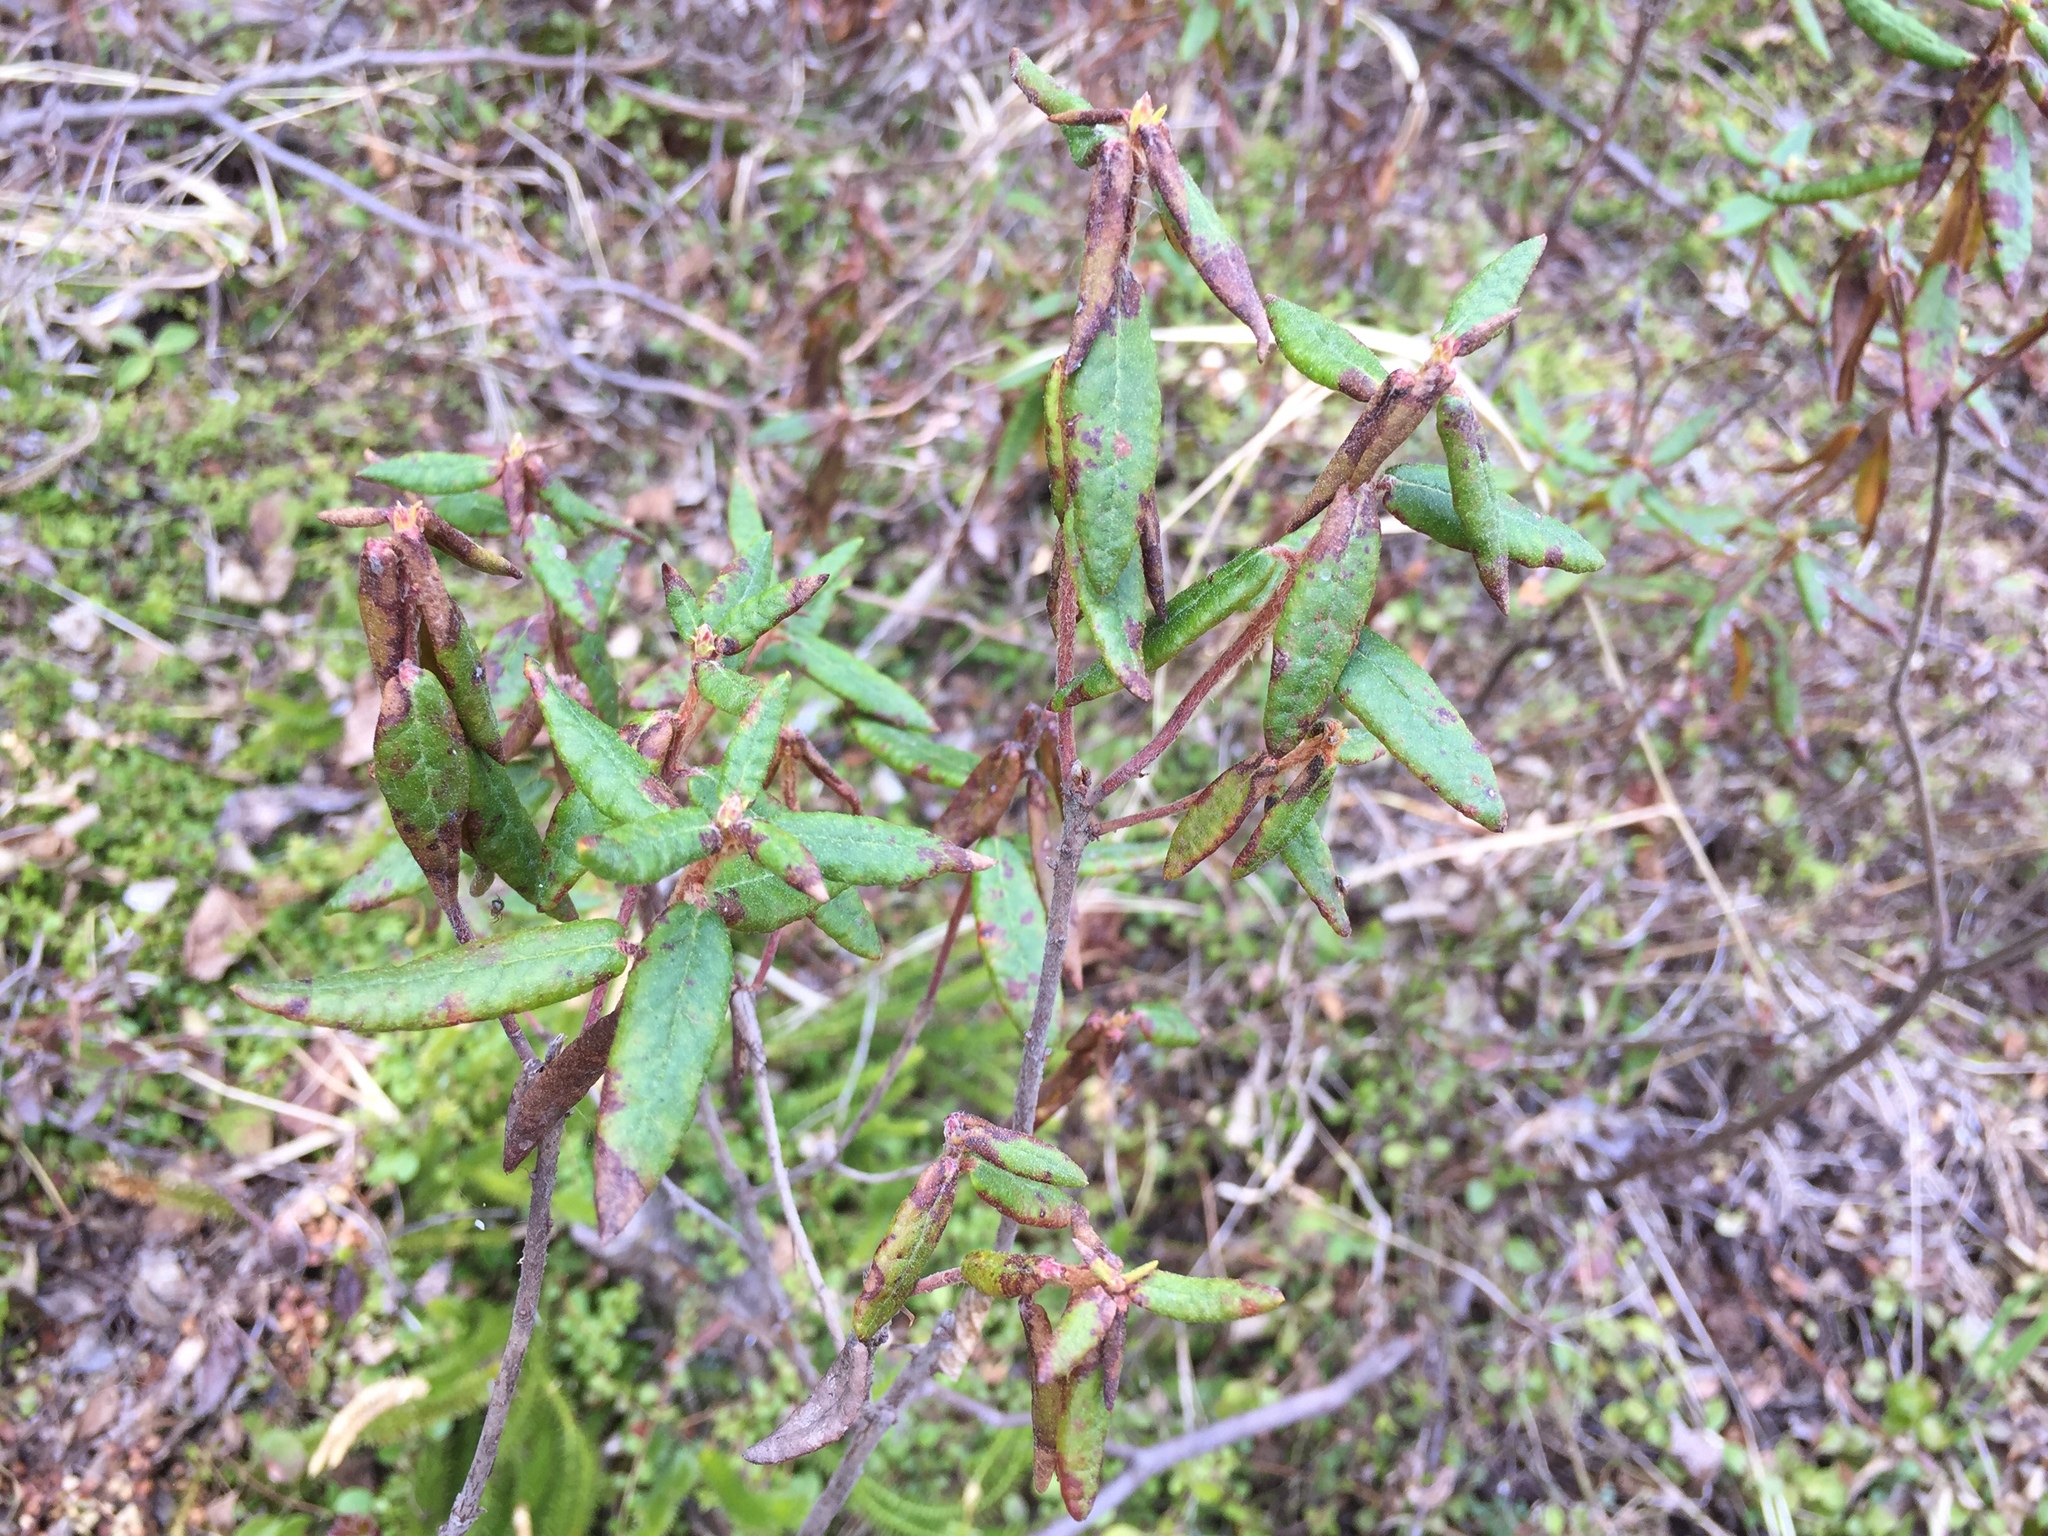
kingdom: Plantae
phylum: Tracheophyta
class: Magnoliopsida
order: Ericales
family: Ericaceae
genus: Rhododendron
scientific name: Rhododendron groenlandicum
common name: Bog labrador tea
